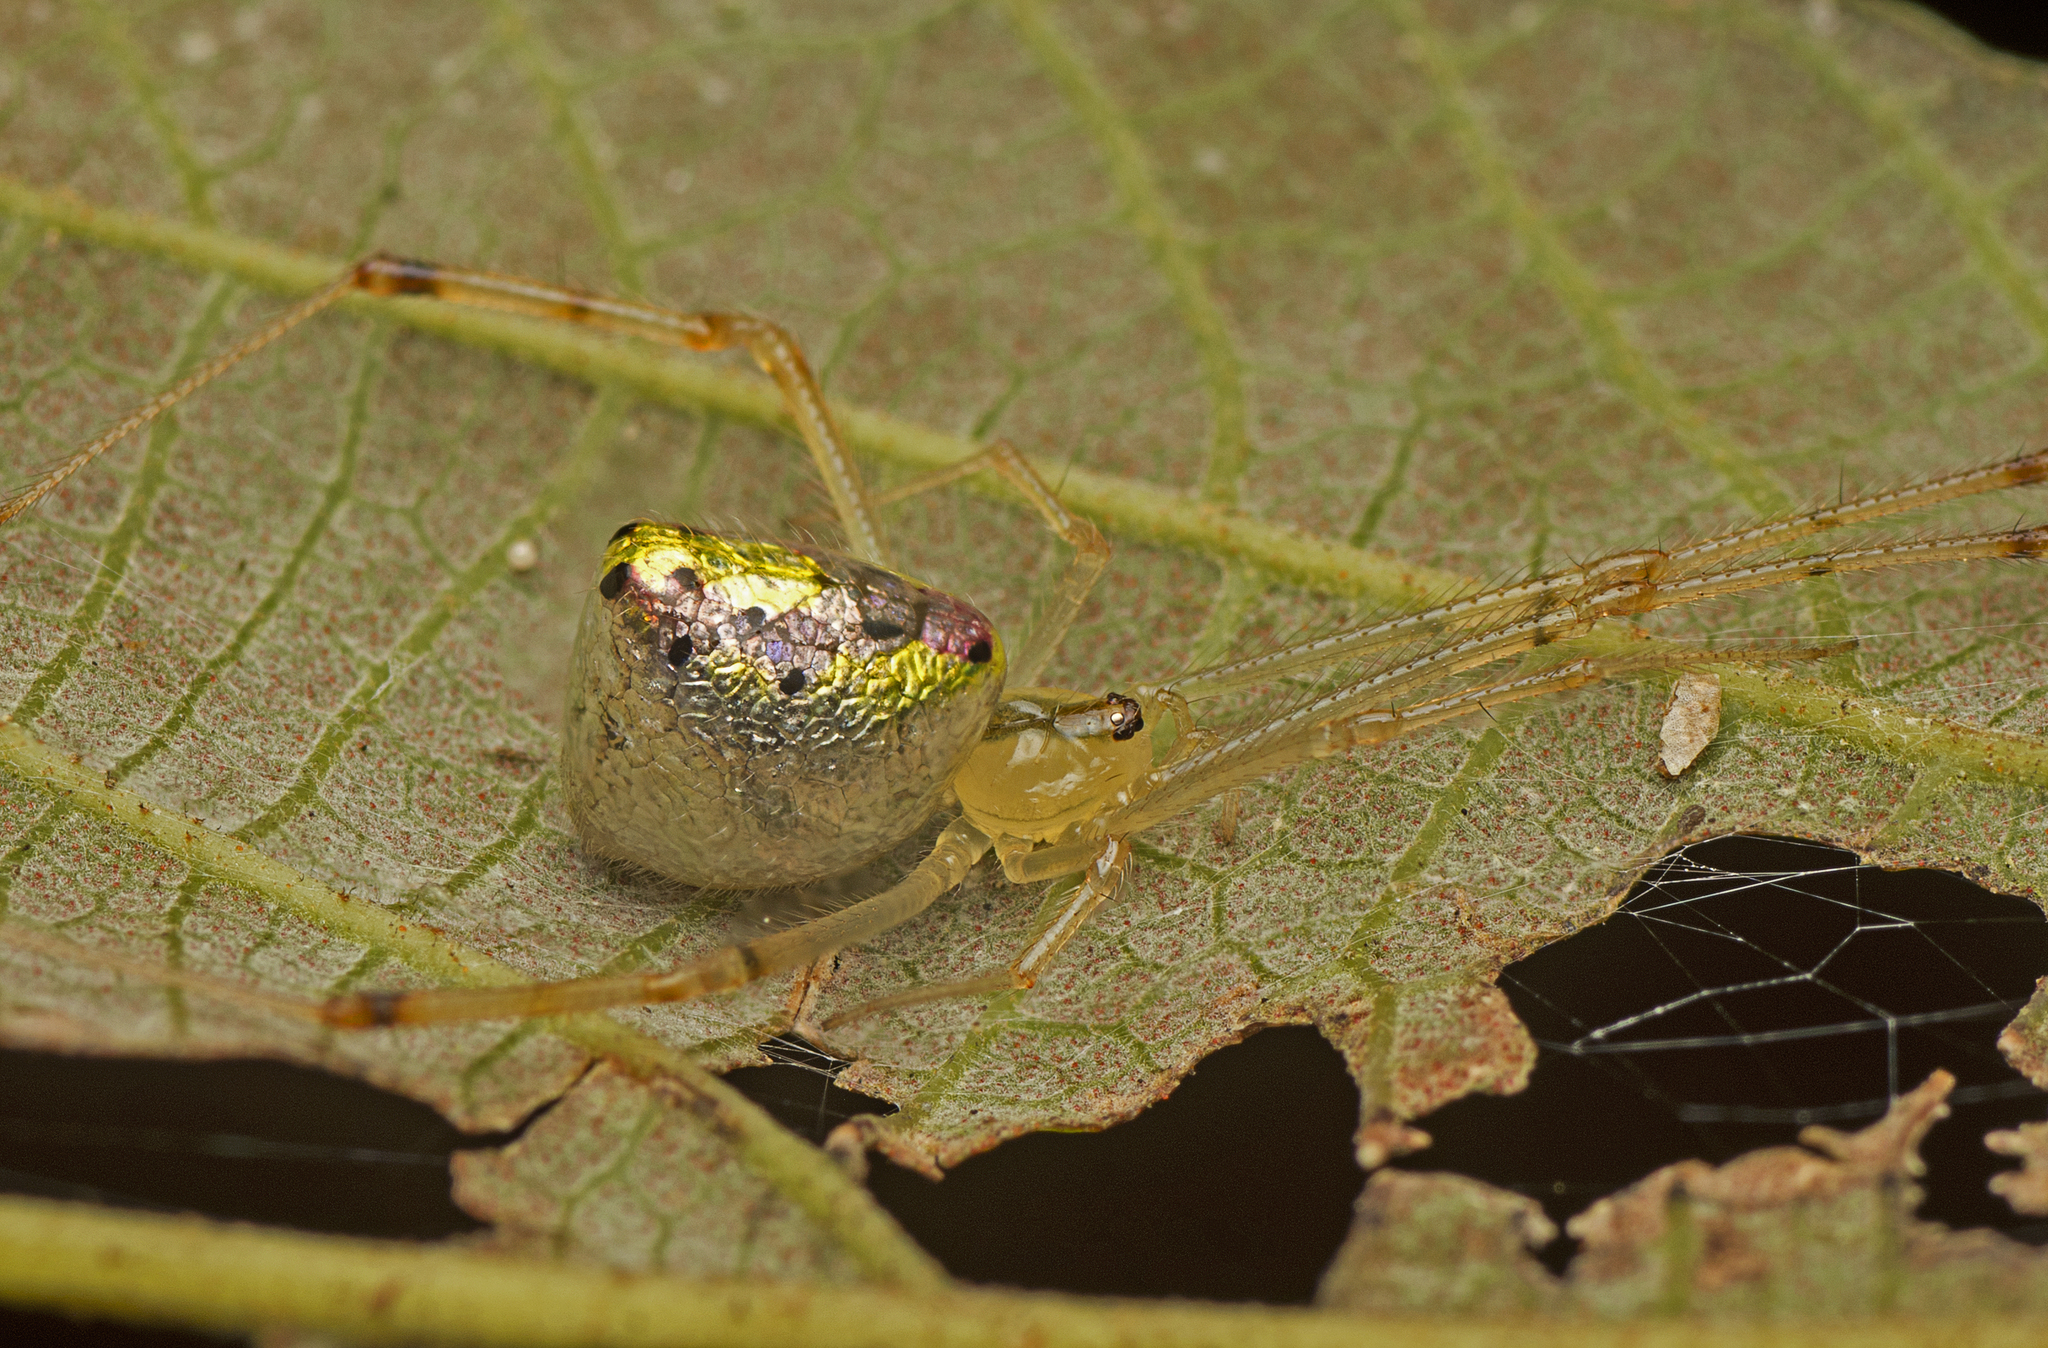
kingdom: Animalia
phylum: Arthropoda
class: Arachnida
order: Araneae
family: Theridiidae
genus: Thwaitesia
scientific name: Thwaitesia nigronodosa
